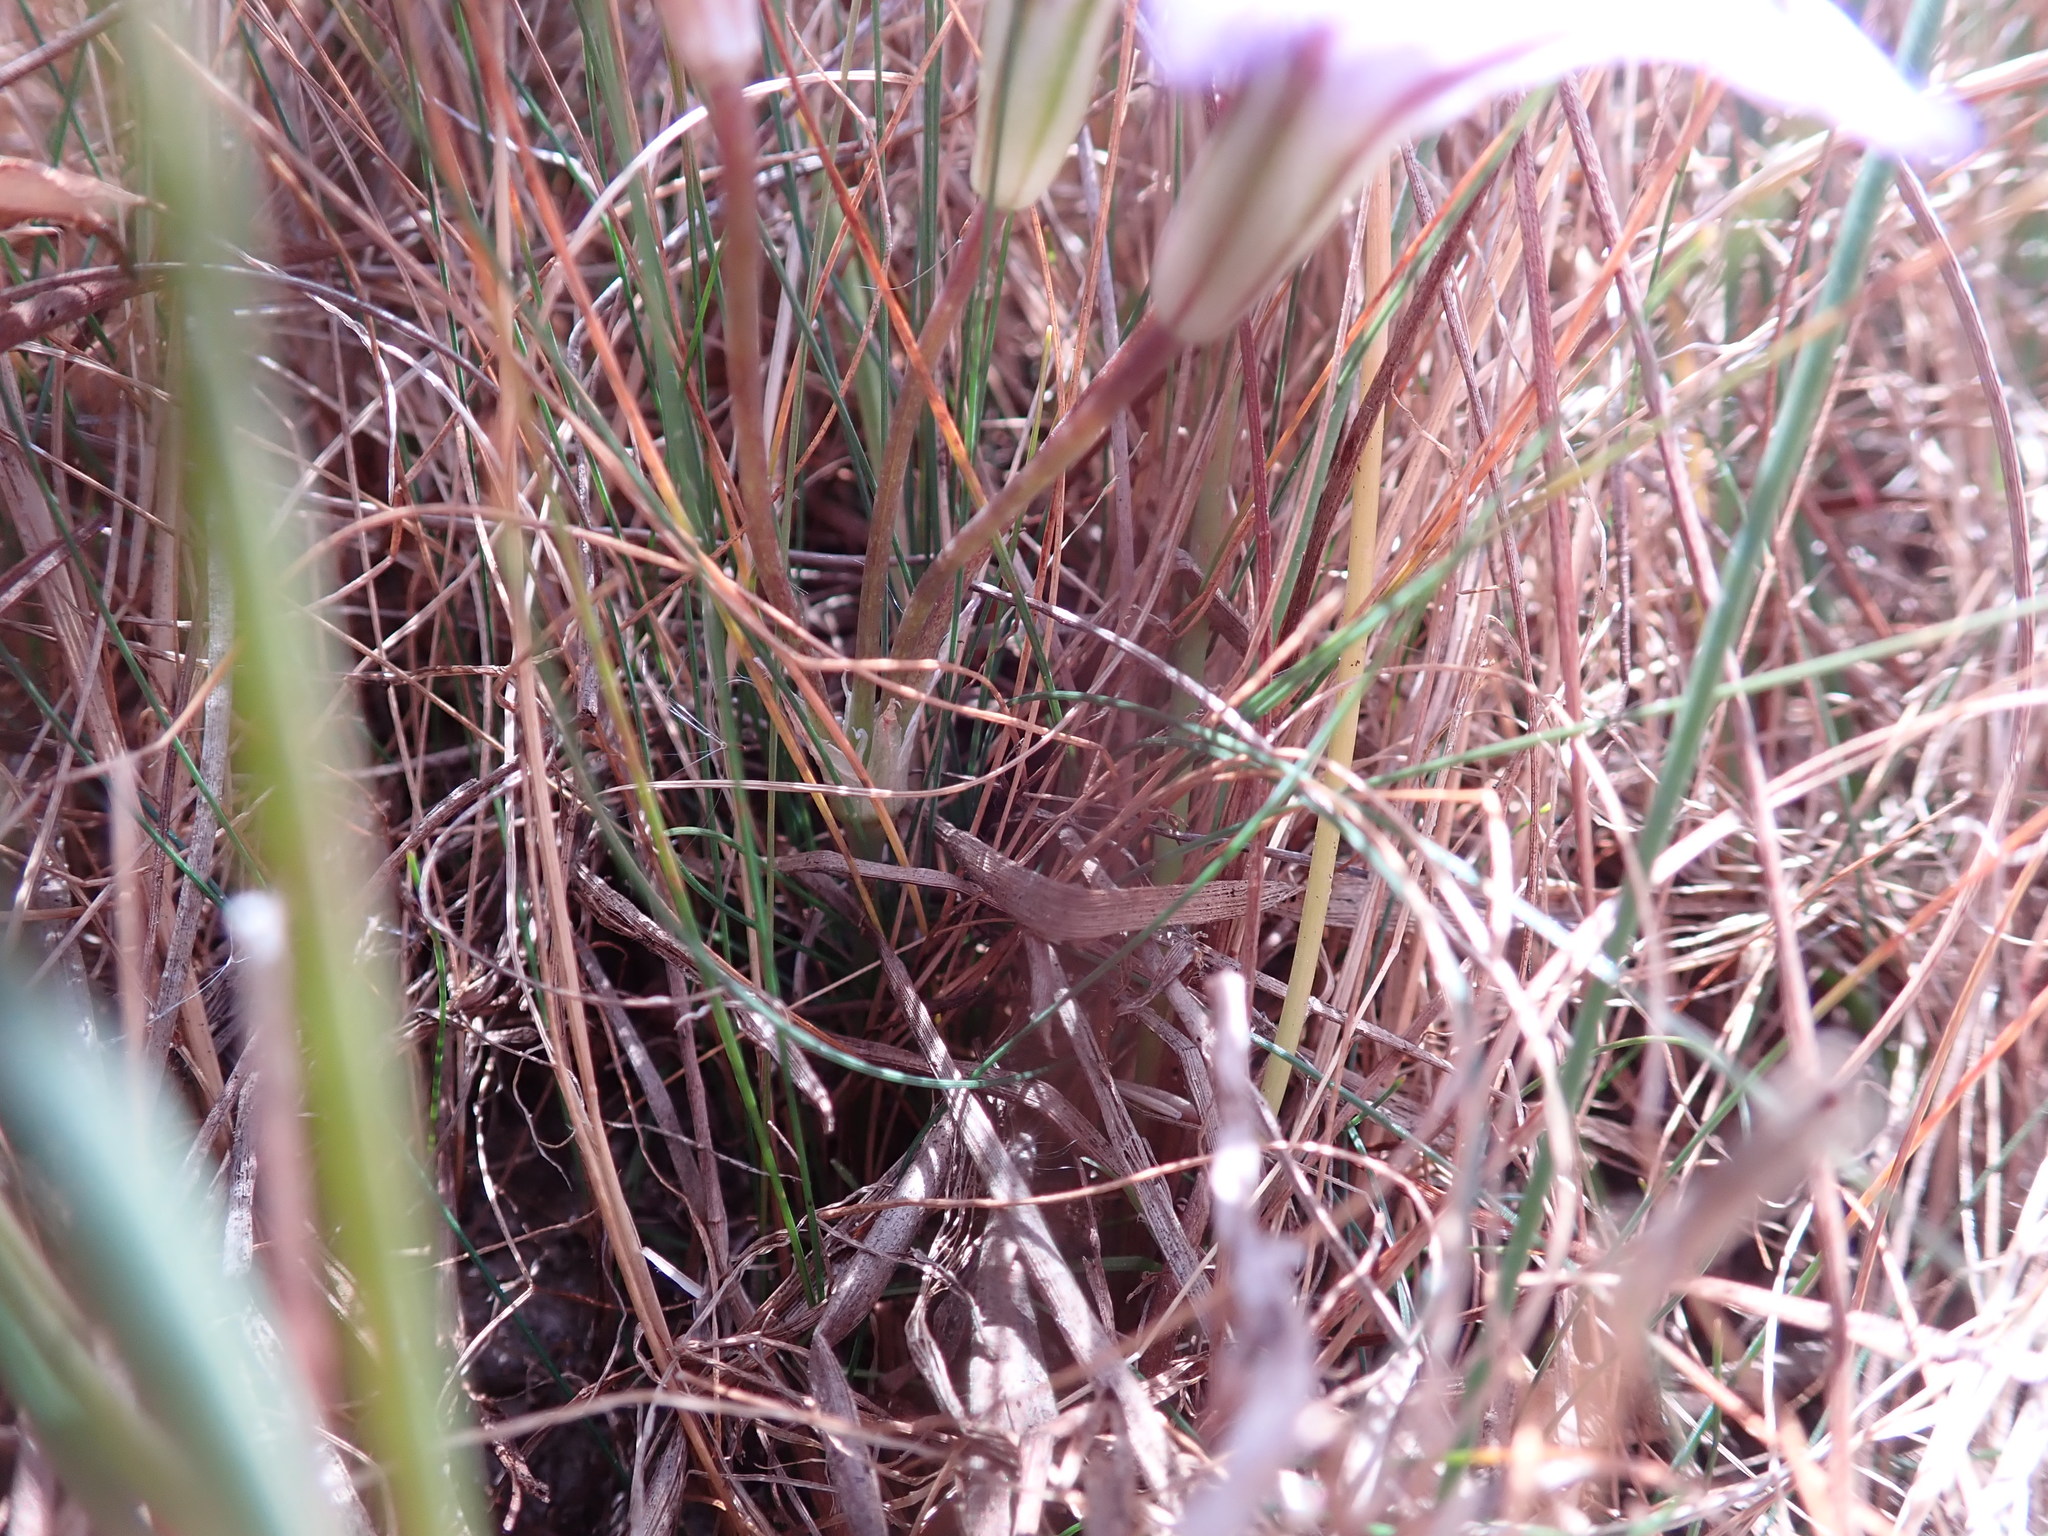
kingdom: Plantae
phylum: Tracheophyta
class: Liliopsida
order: Asparagales
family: Asparagaceae
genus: Brodiaea
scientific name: Brodiaea terrestris
